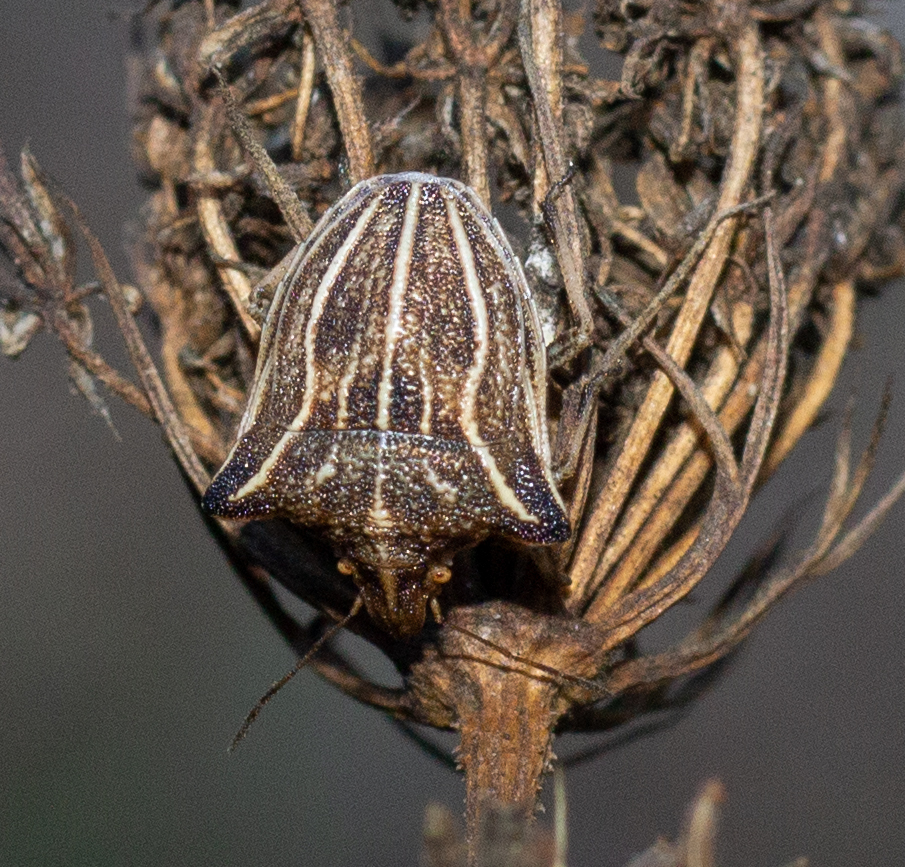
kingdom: Animalia
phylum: Arthropoda
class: Insecta
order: Hemiptera
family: Pentatomidae
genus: Ancyrosoma
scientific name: Ancyrosoma leucogrammes
